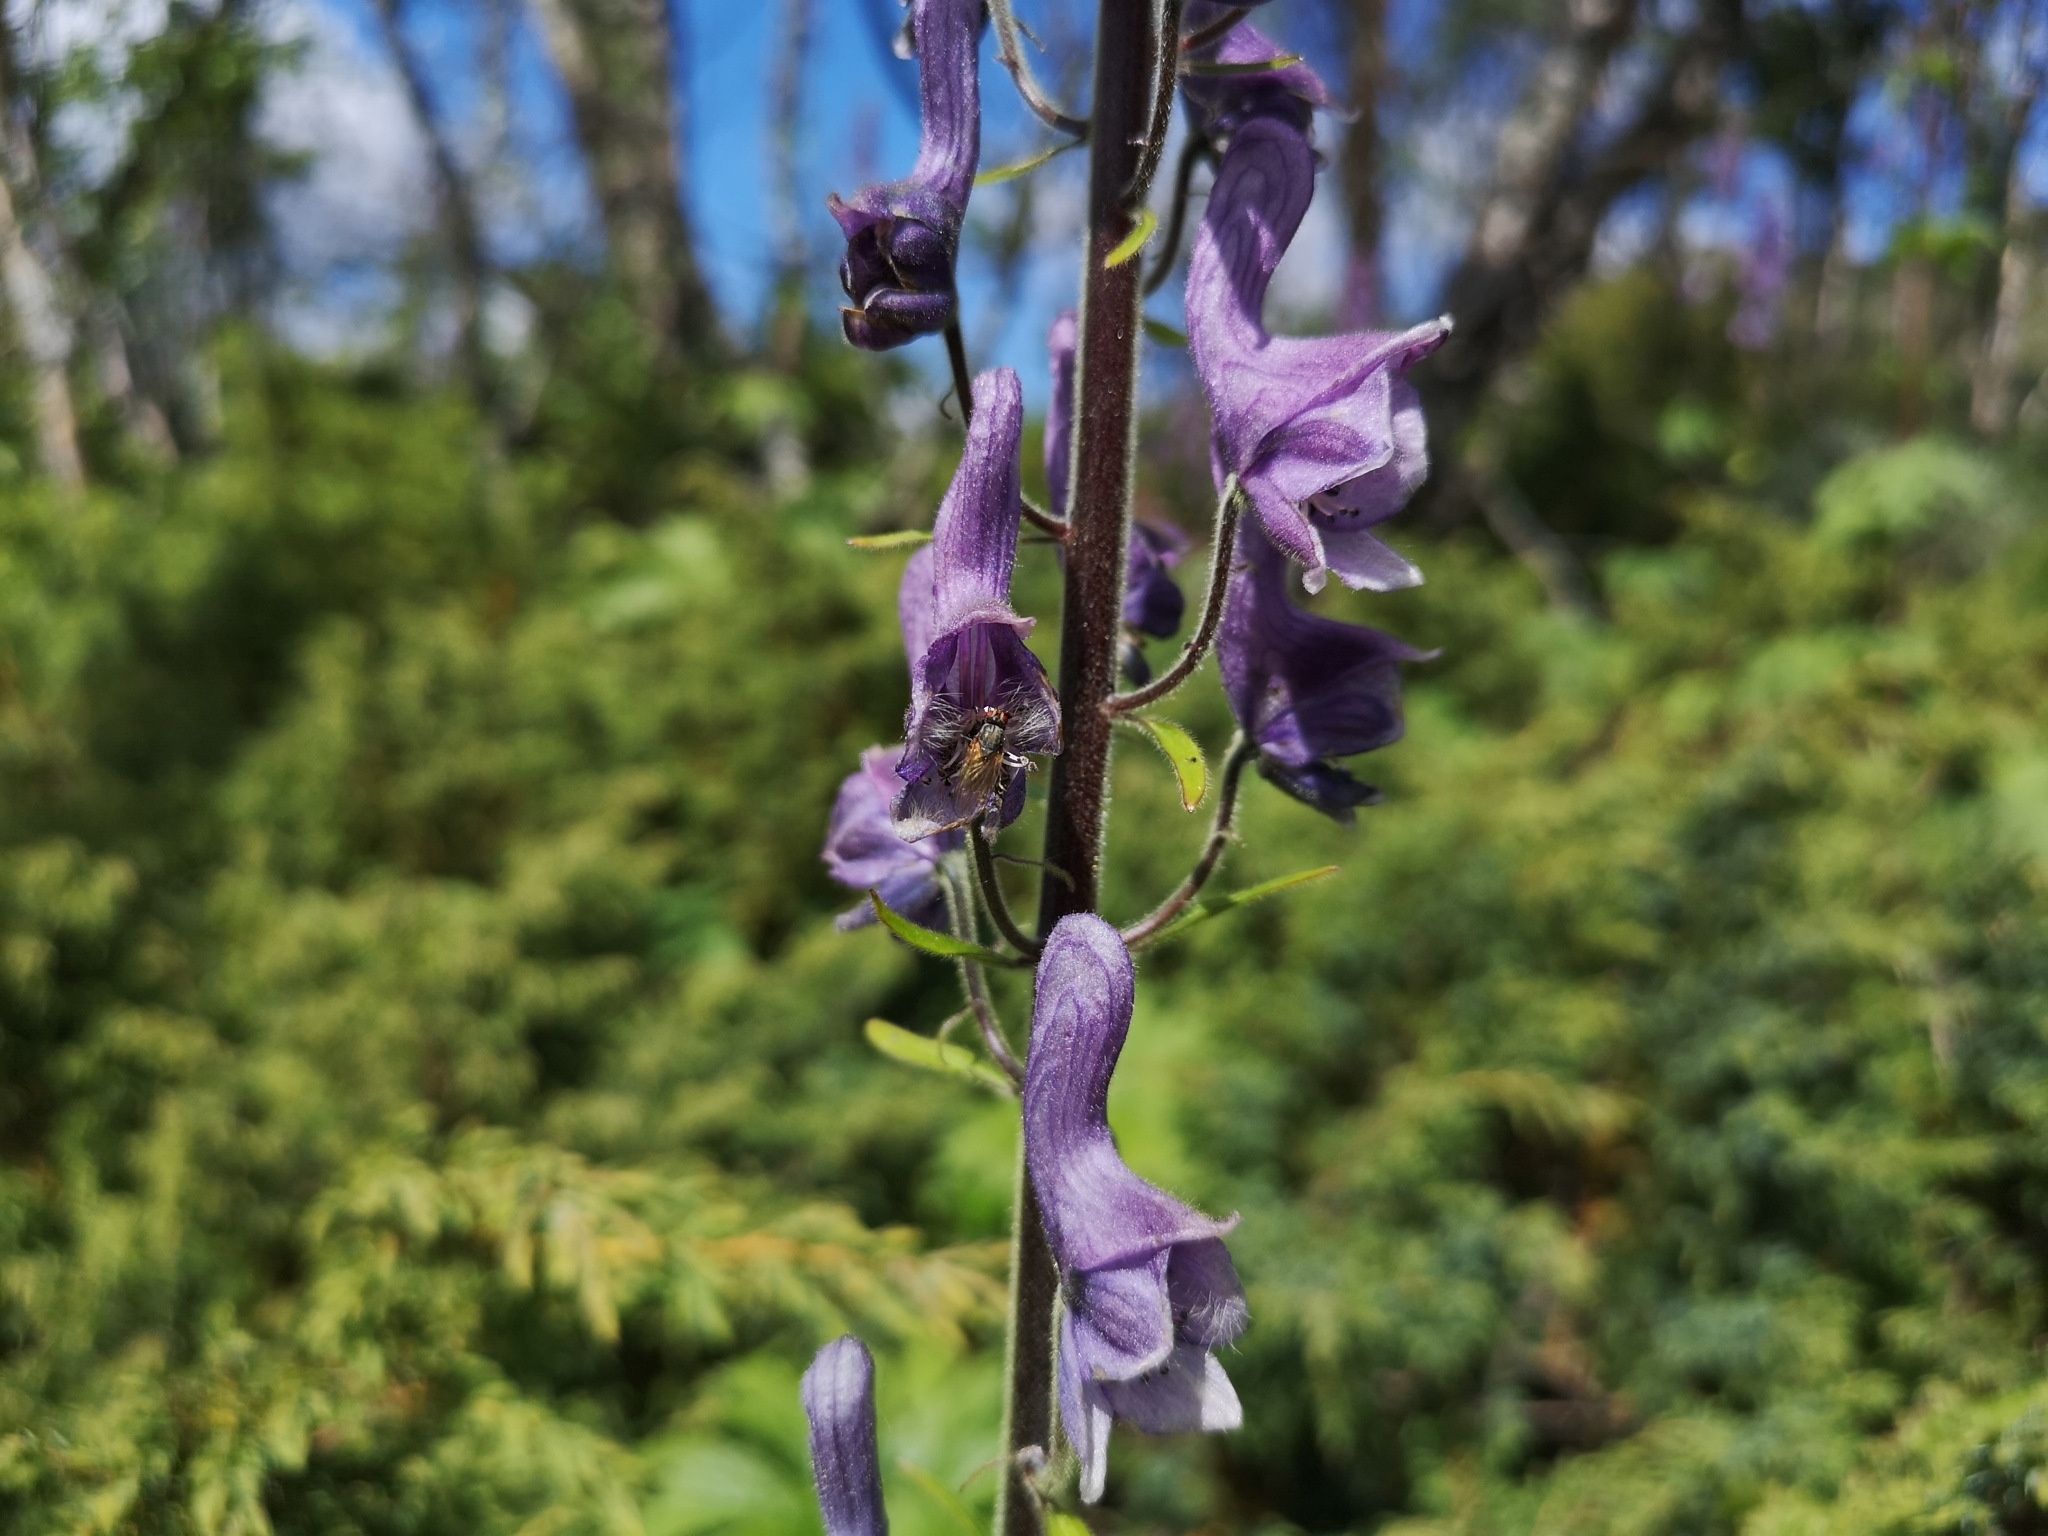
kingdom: Plantae
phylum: Tracheophyta
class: Magnoliopsida
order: Ranunculales
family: Ranunculaceae
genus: Aconitum
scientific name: Aconitum septentrionale
